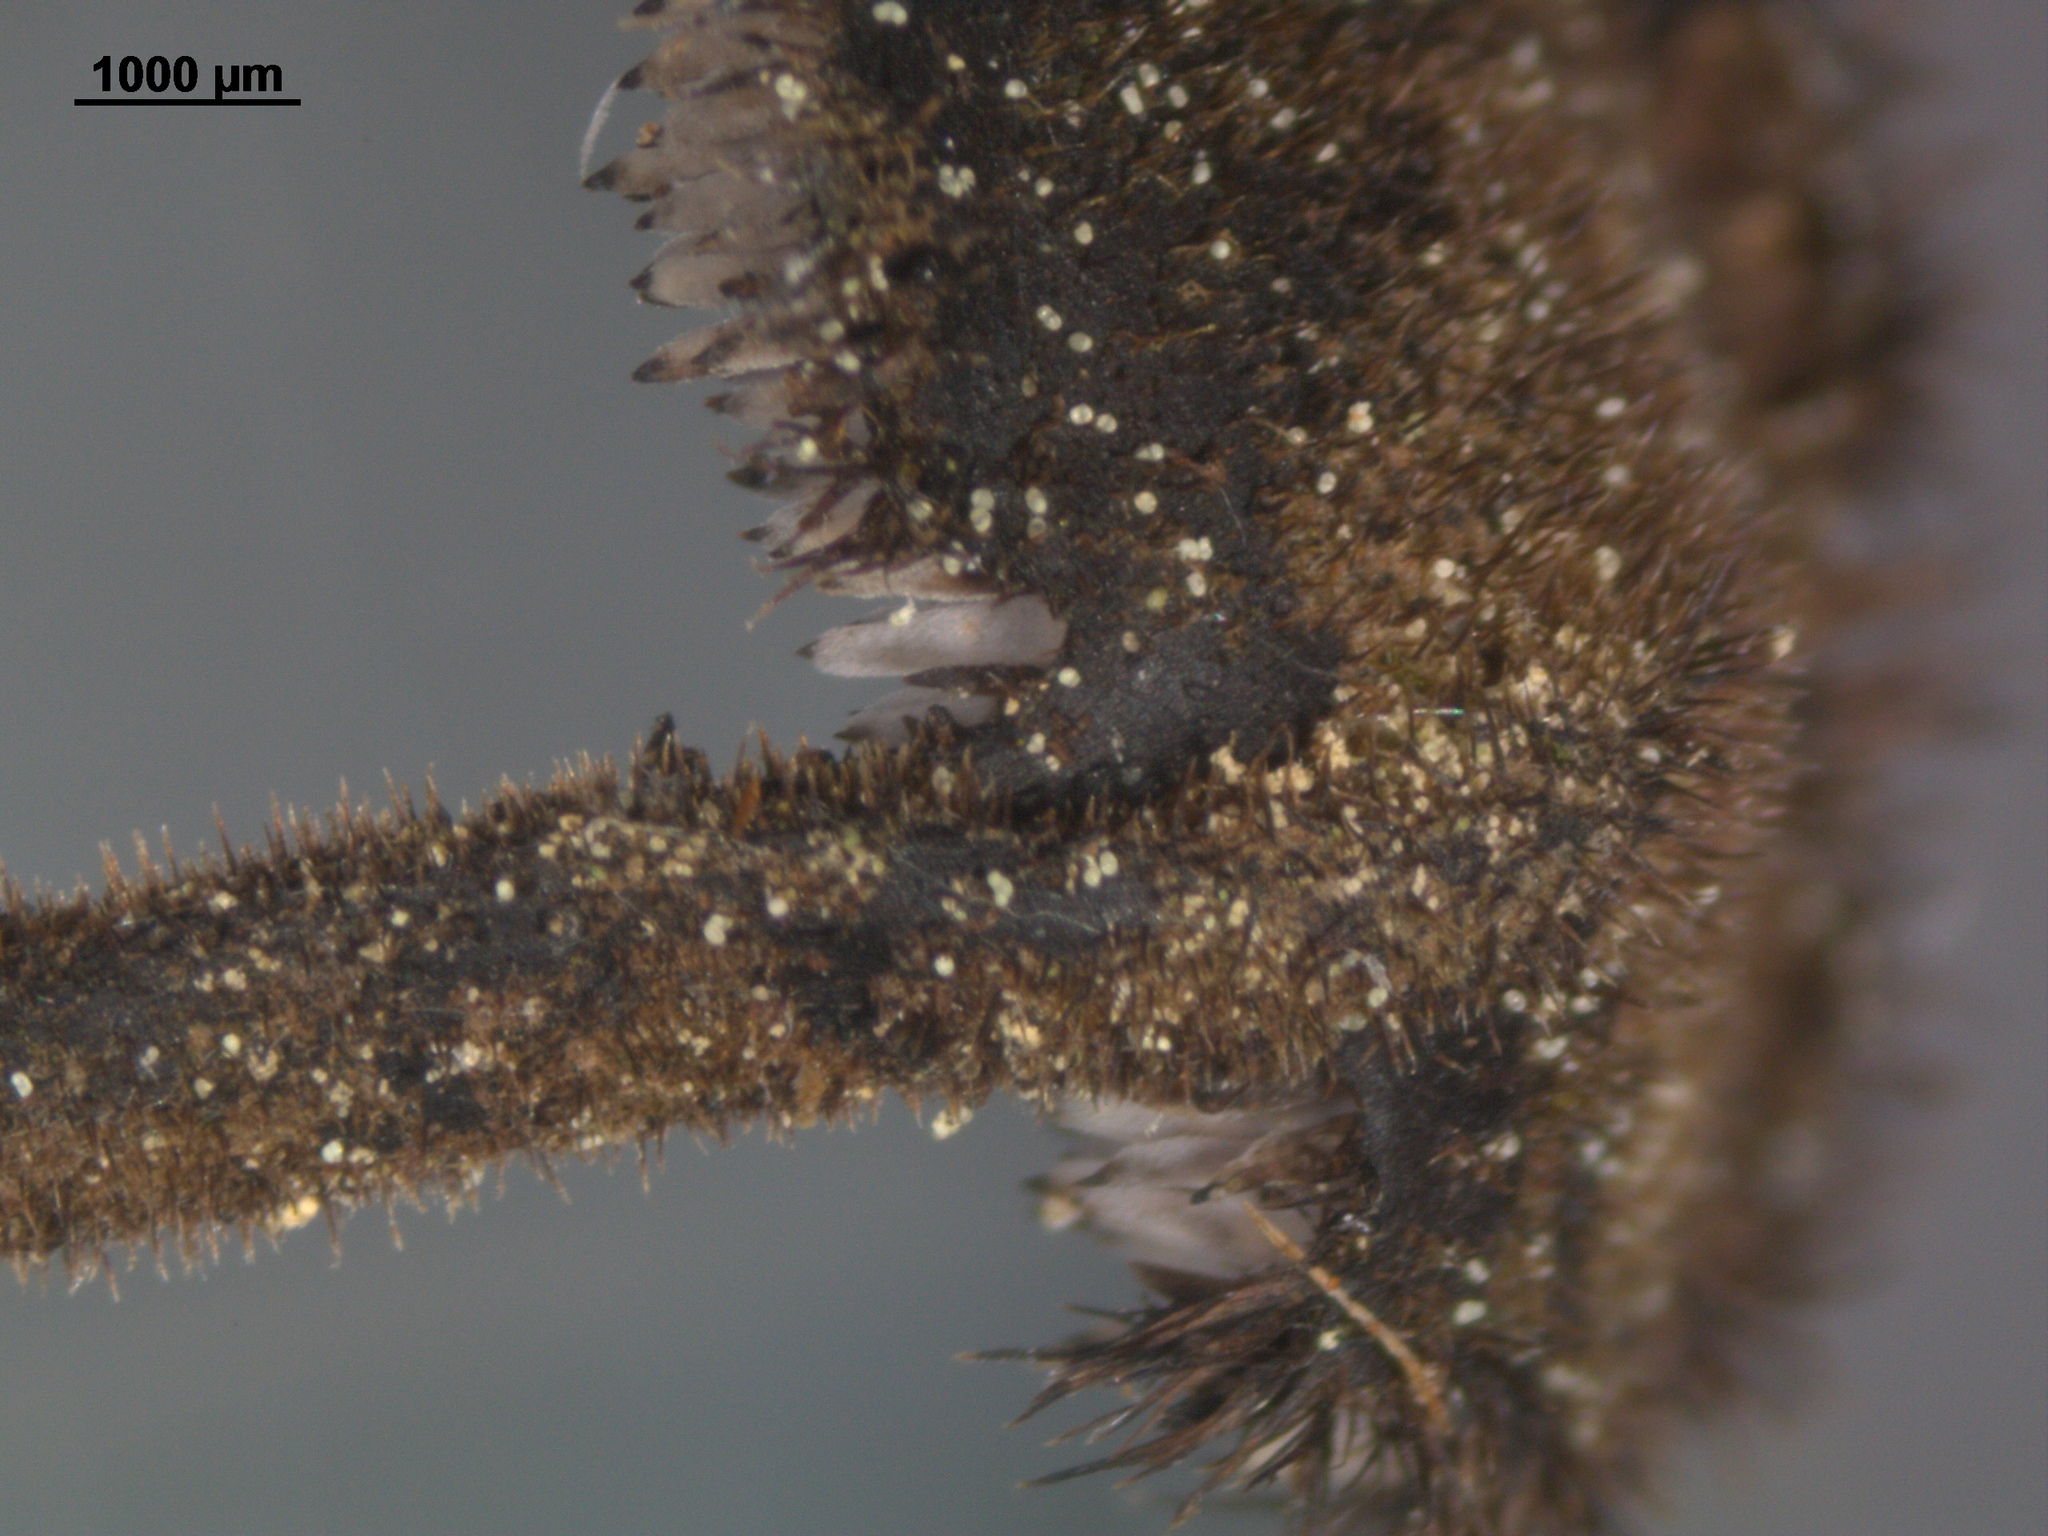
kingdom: Fungi
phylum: Basidiomycota
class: Agaricomycetes
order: Russulales
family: Auriscalpiaceae
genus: Auriscalpium
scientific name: Auriscalpium vulgare
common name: Earpick fungus
